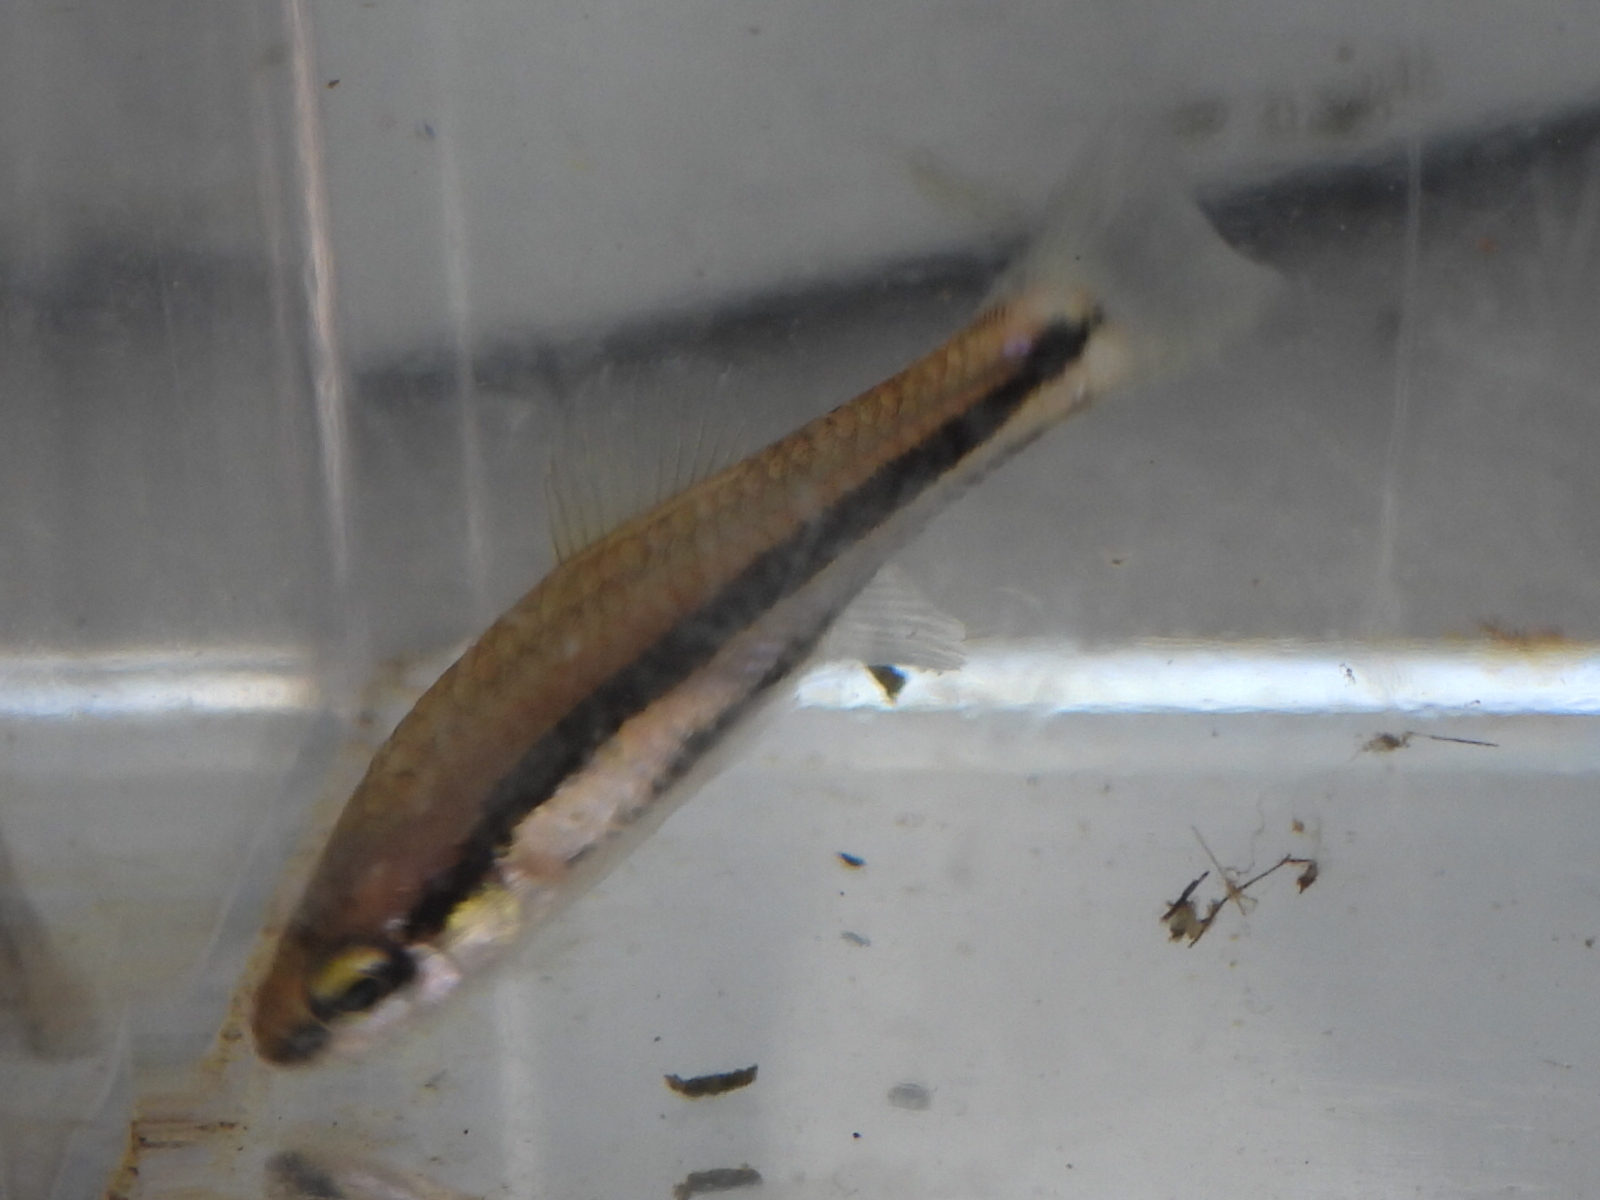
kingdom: Animalia
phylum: Chordata
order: Cyprinodontiformes
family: Fundulidae
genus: Lucania
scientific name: Lucania goodei
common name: Bluefin killifish
